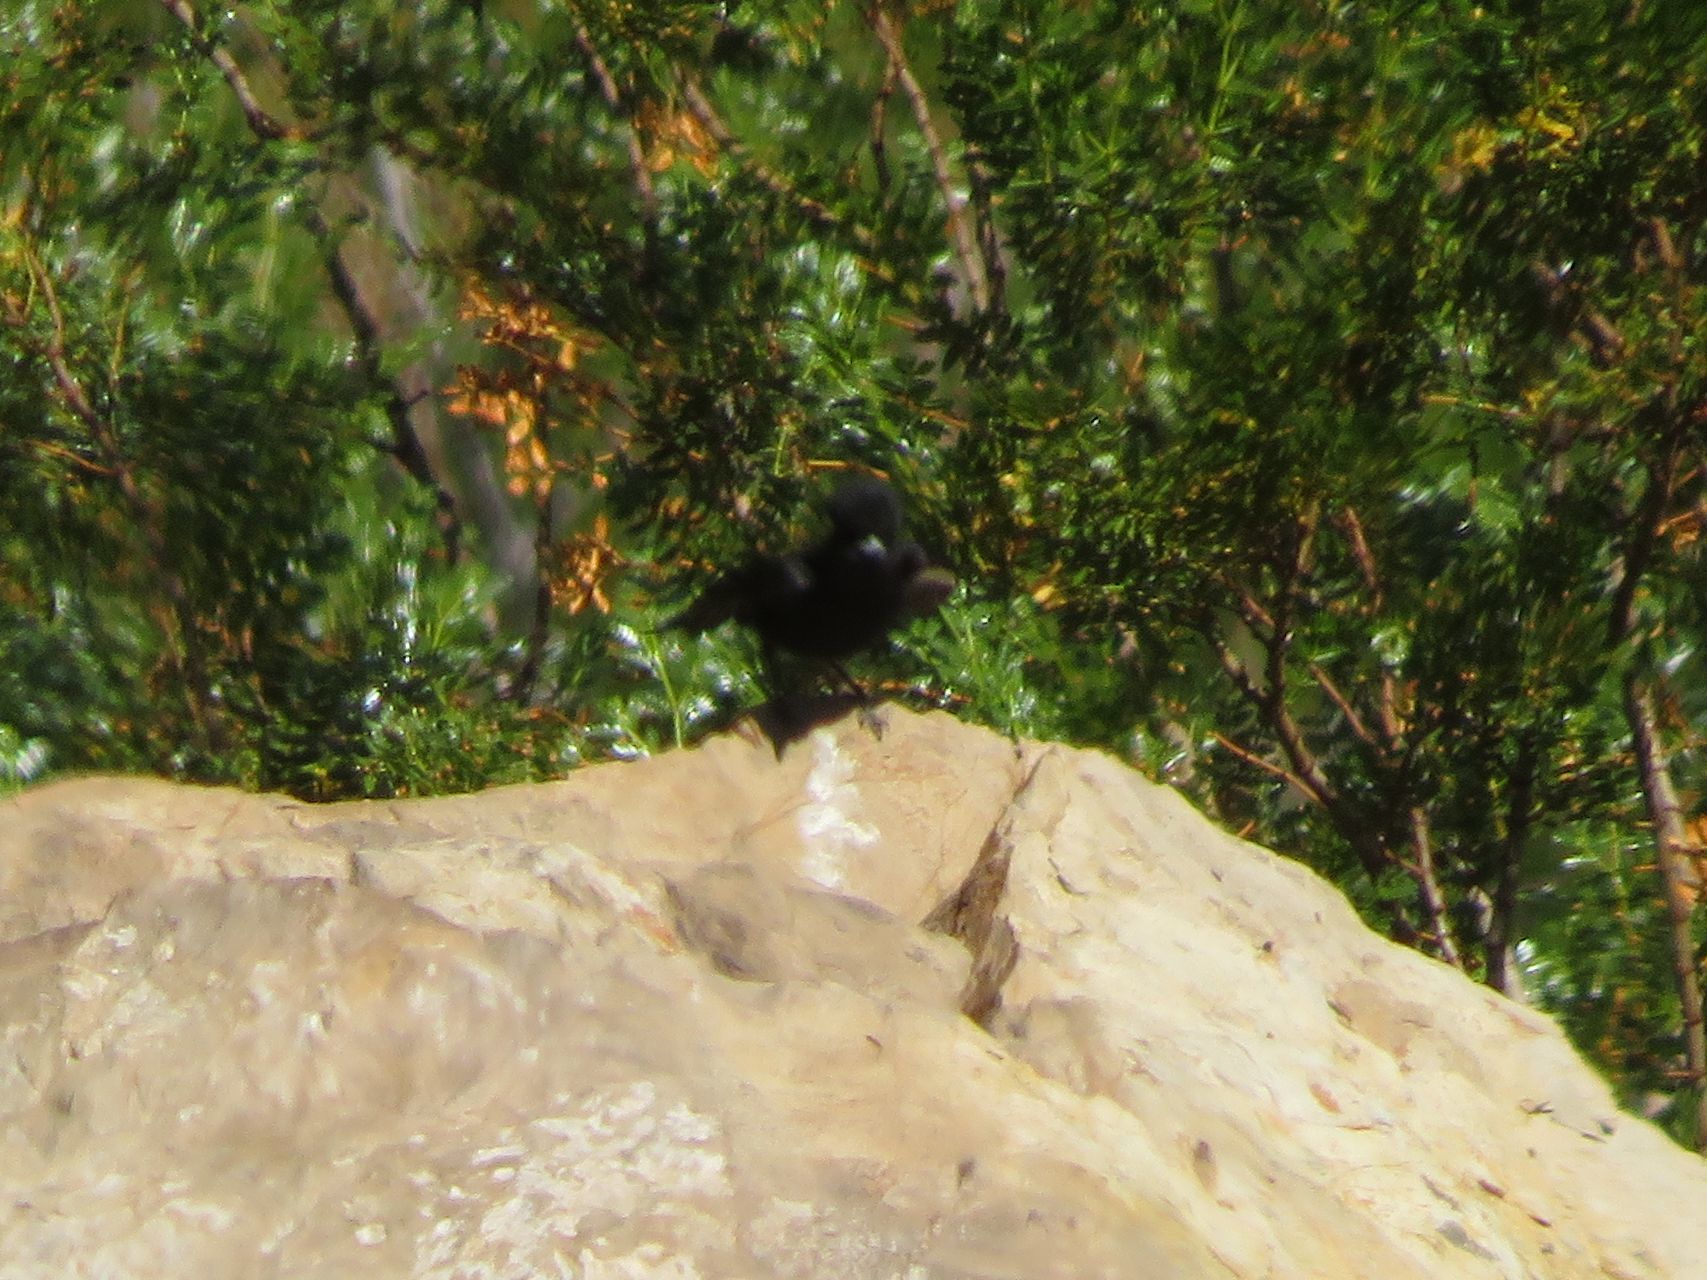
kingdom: Animalia
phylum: Chordata
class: Aves
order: Passeriformes
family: Tyrannidae
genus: Knipolegus
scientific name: Knipolegus aterrimus
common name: White-winged black tyrant
